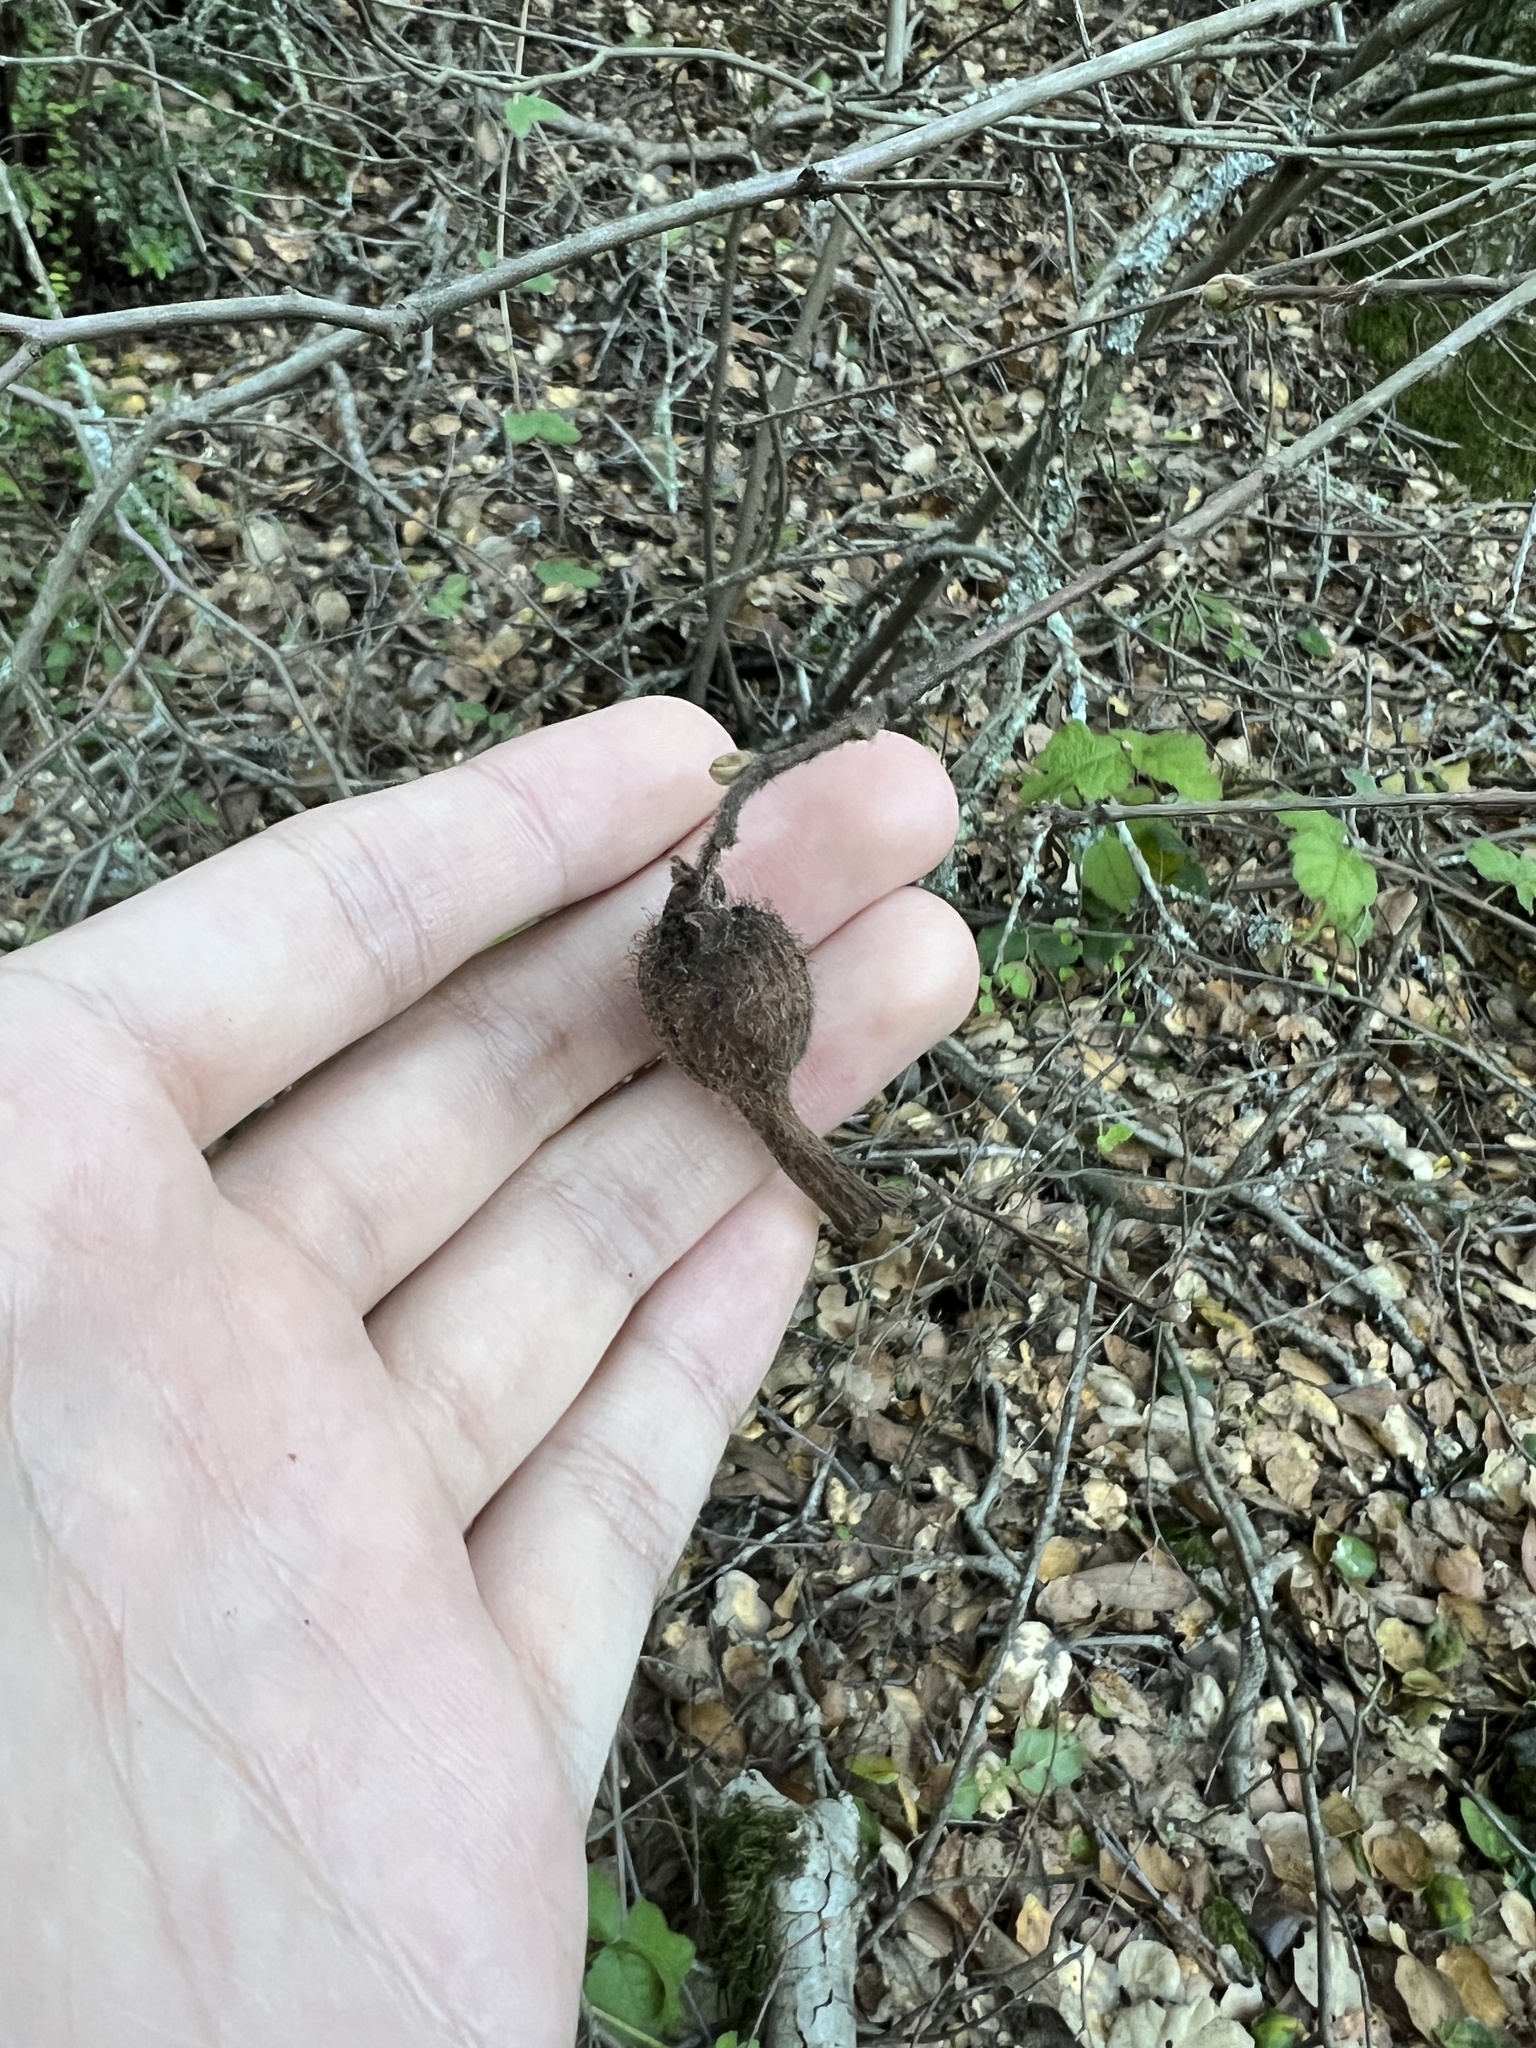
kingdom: Plantae
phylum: Tracheophyta
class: Magnoliopsida
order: Fagales
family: Betulaceae
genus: Corylus
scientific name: Corylus cornuta
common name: Beaked hazel
